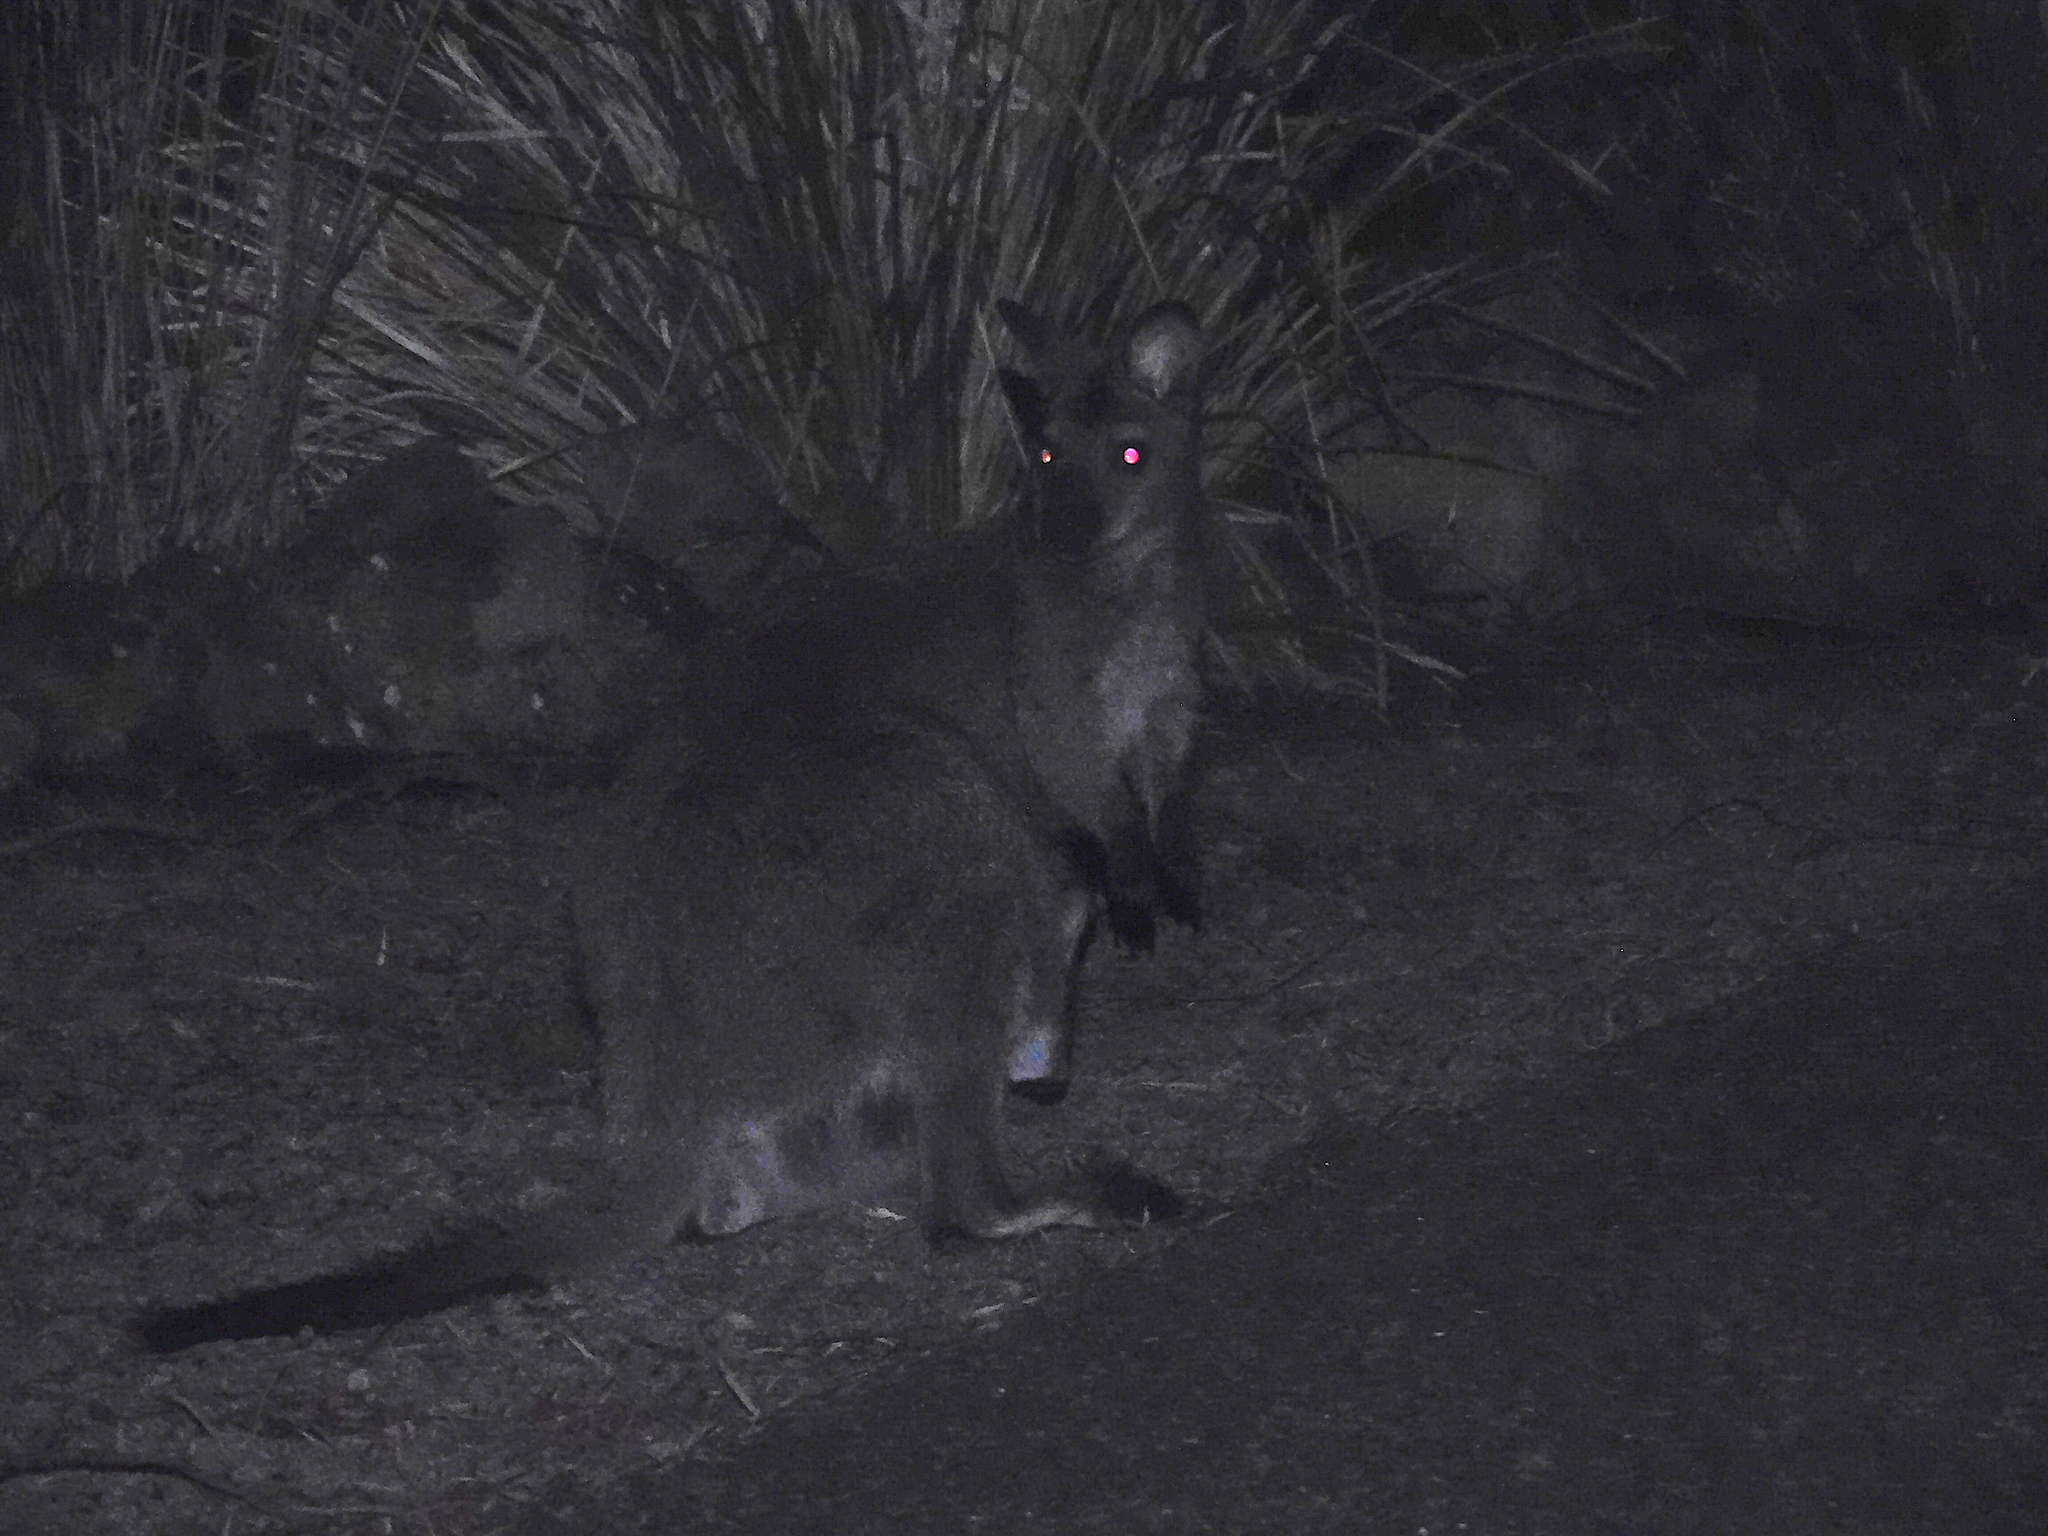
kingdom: Animalia
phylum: Chordata
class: Mammalia
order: Diprotodontia
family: Macropodidae
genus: Notamacropus
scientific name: Notamacropus rufogriseus
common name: Red-necked wallaby
